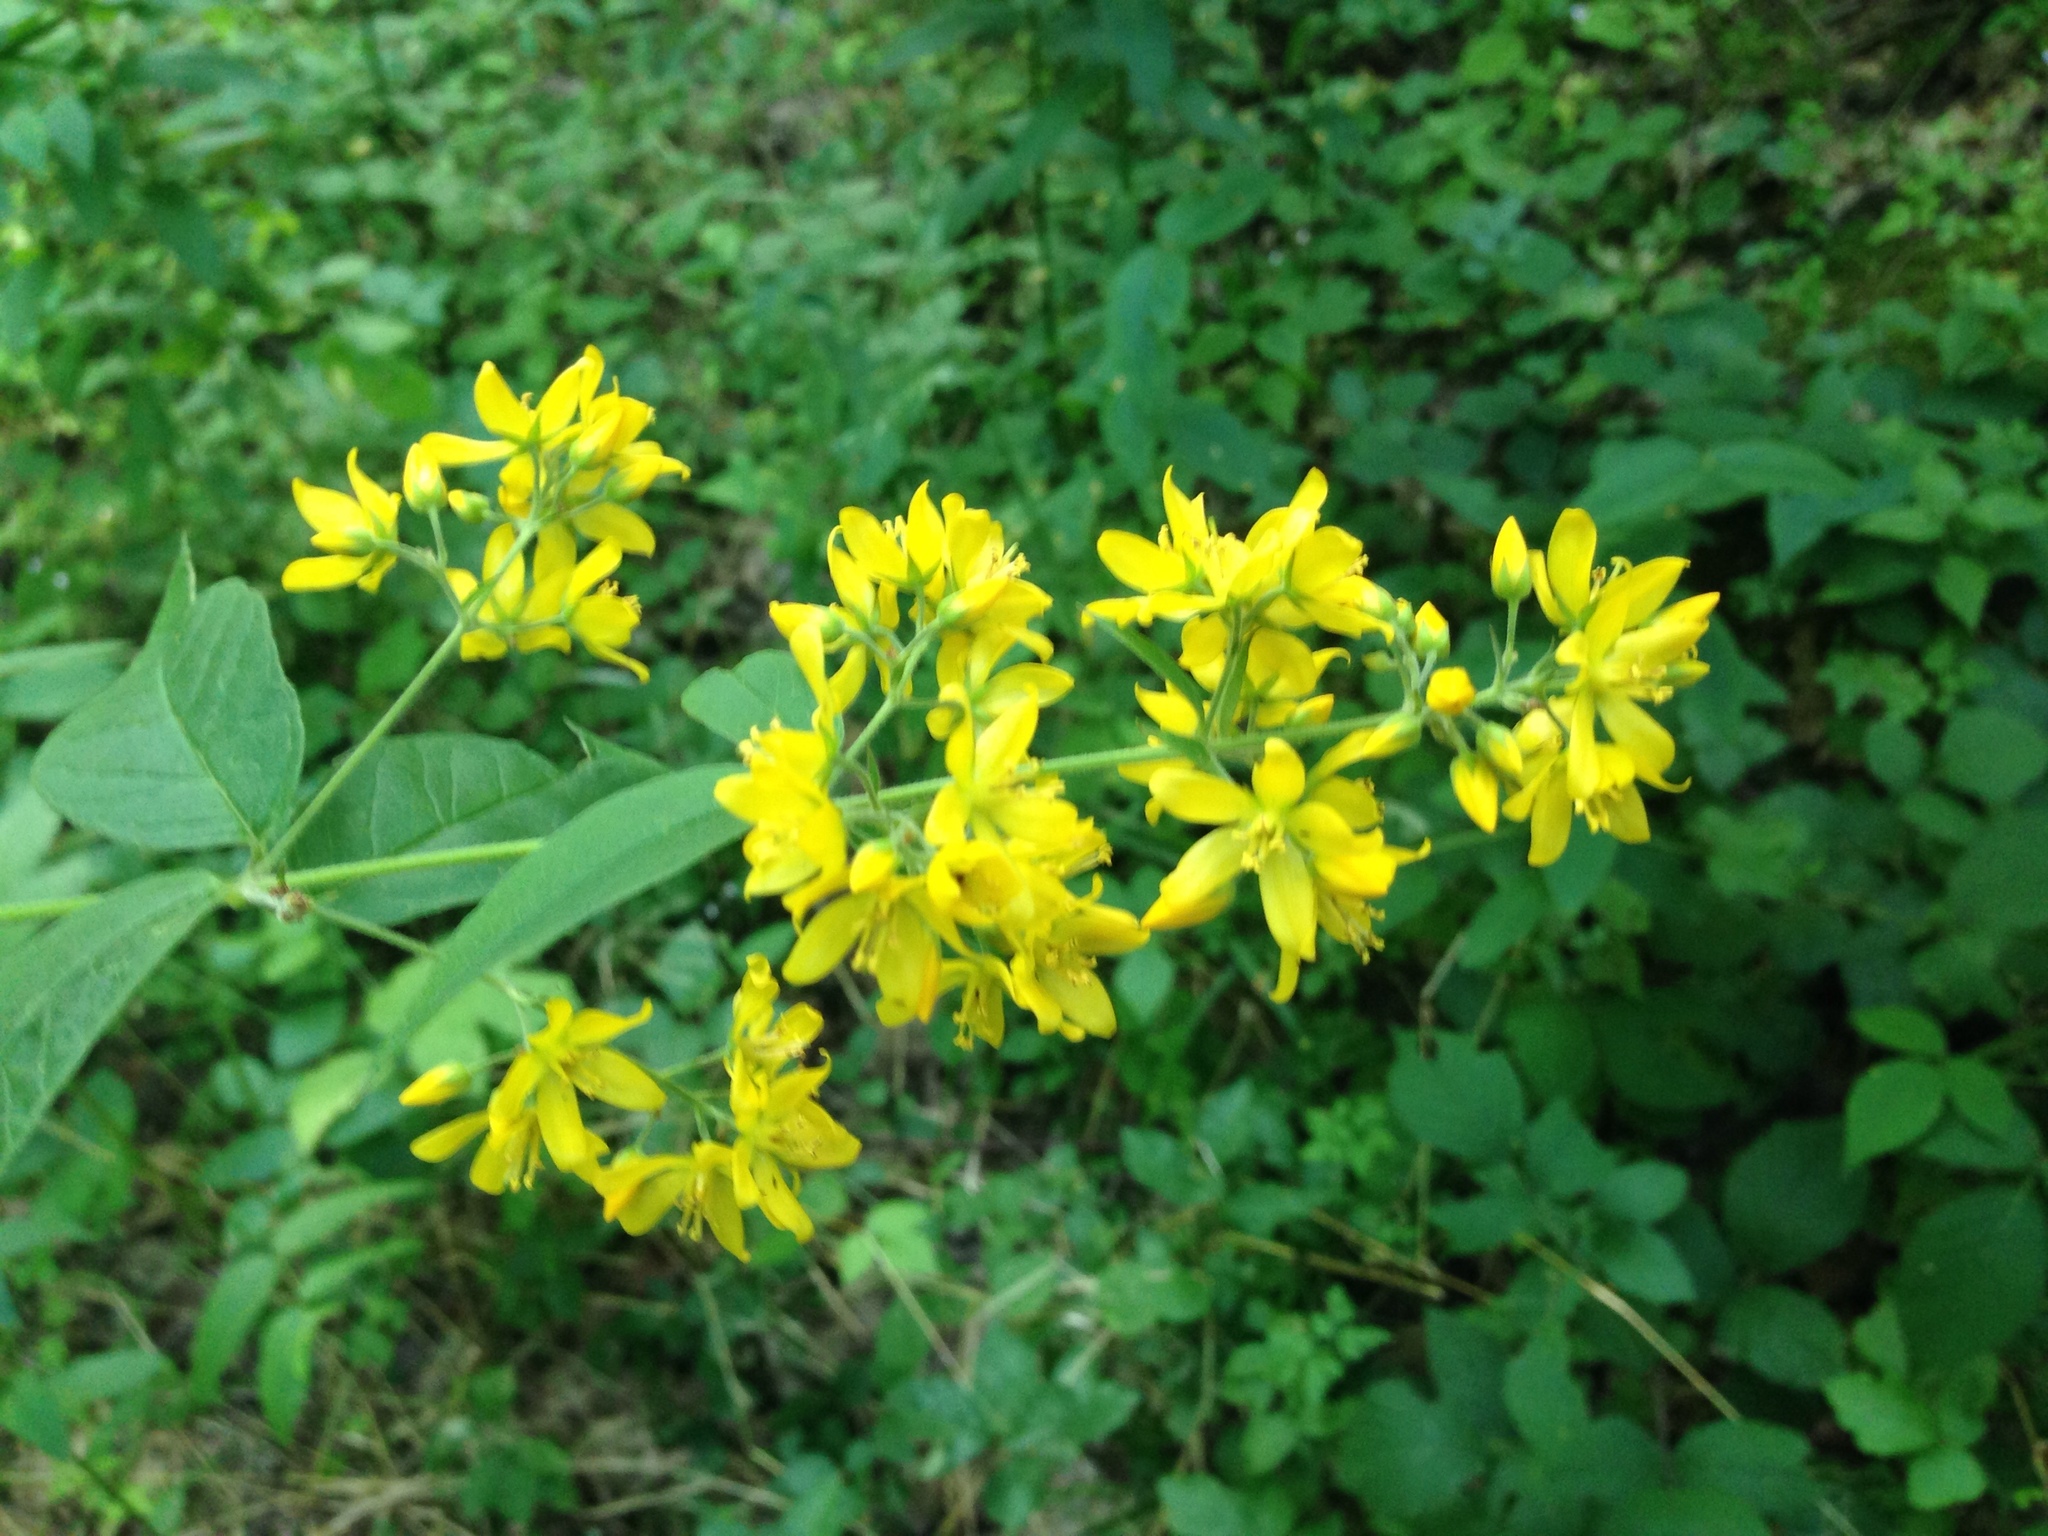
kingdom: Plantae
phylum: Tracheophyta
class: Magnoliopsida
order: Ericales
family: Primulaceae
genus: Lysimachia
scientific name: Lysimachia vulgaris
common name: Yellow loosestrife
